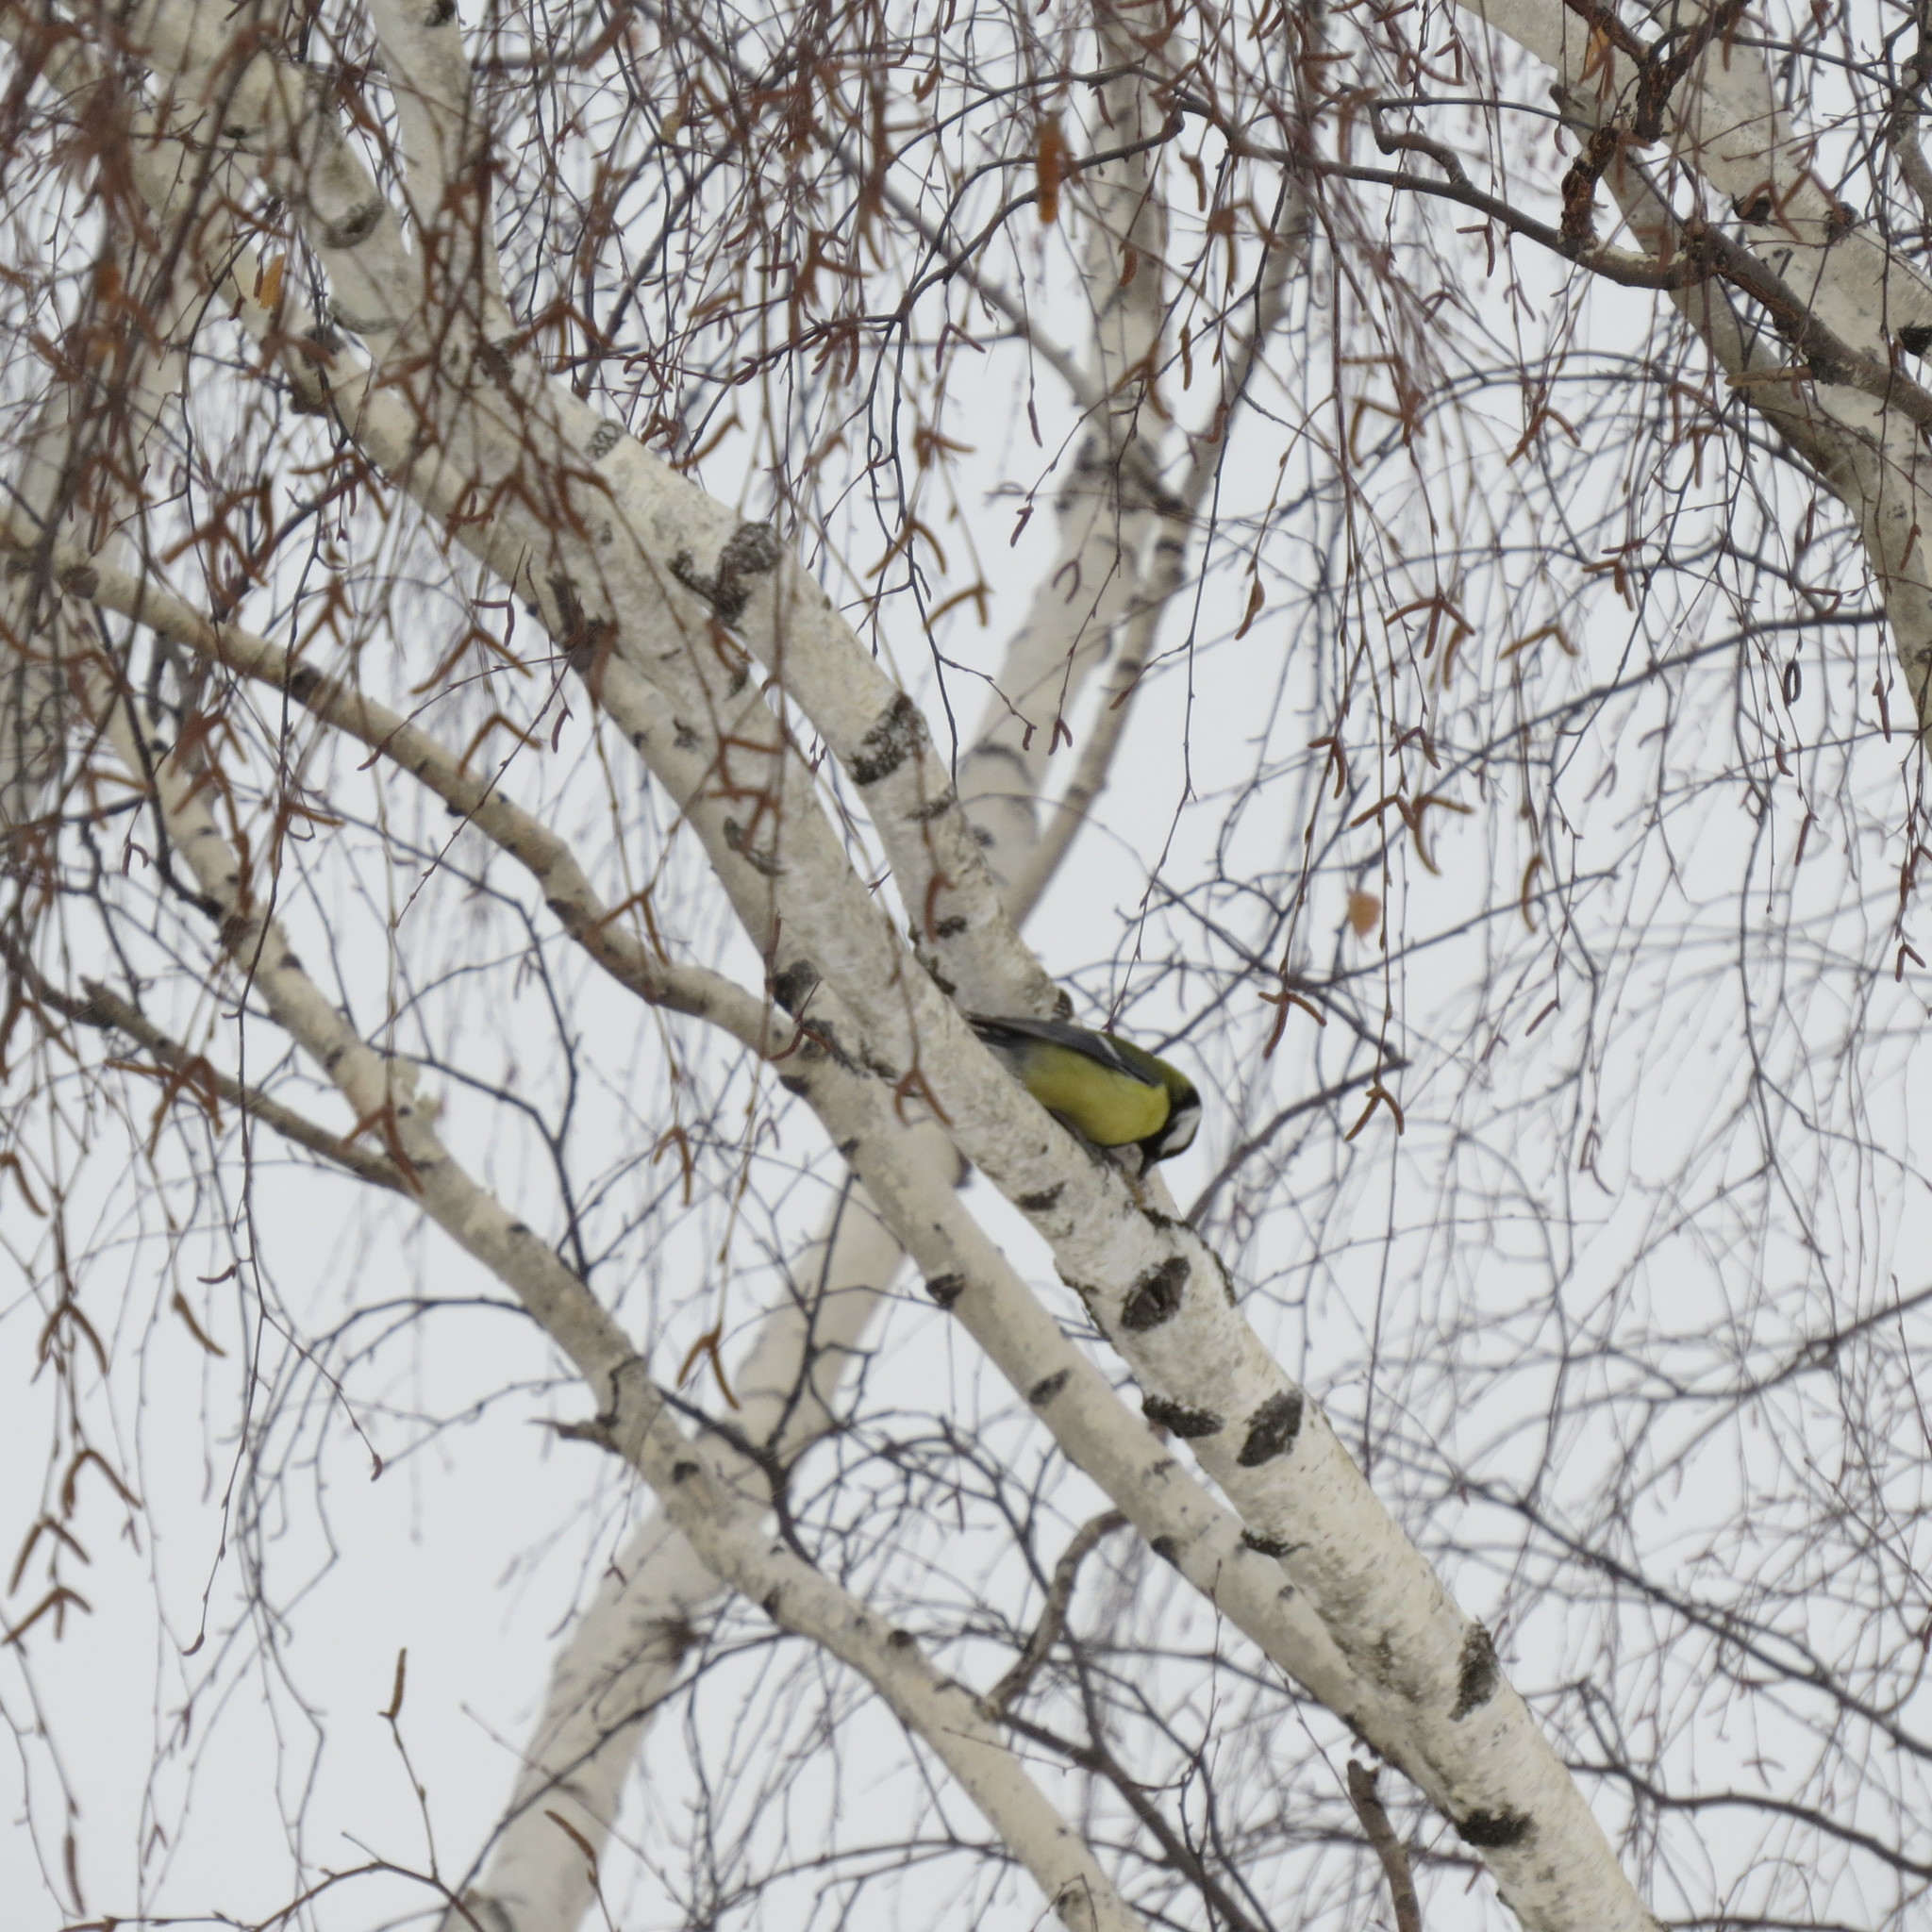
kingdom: Animalia
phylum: Chordata
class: Aves
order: Passeriformes
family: Paridae
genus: Parus
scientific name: Parus major
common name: Great tit
